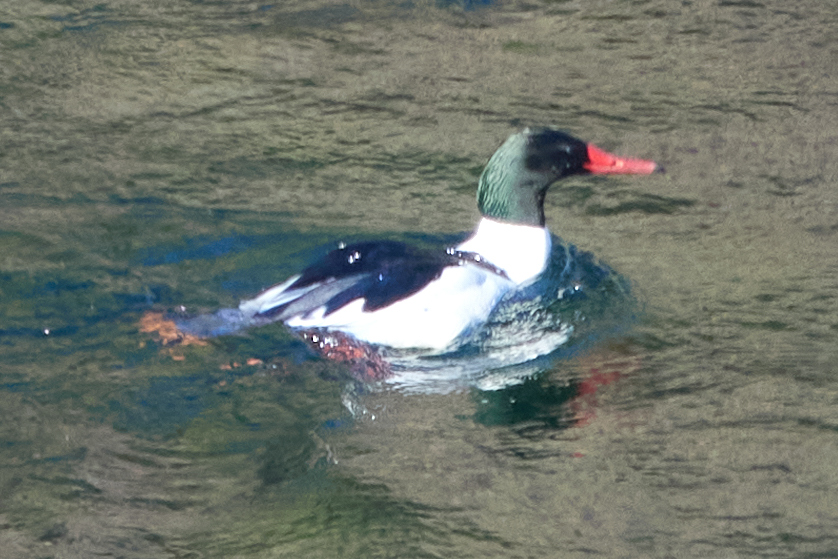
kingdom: Animalia
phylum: Chordata
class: Aves
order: Anseriformes
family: Anatidae
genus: Mergus
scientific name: Mergus merganser
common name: Common merganser
